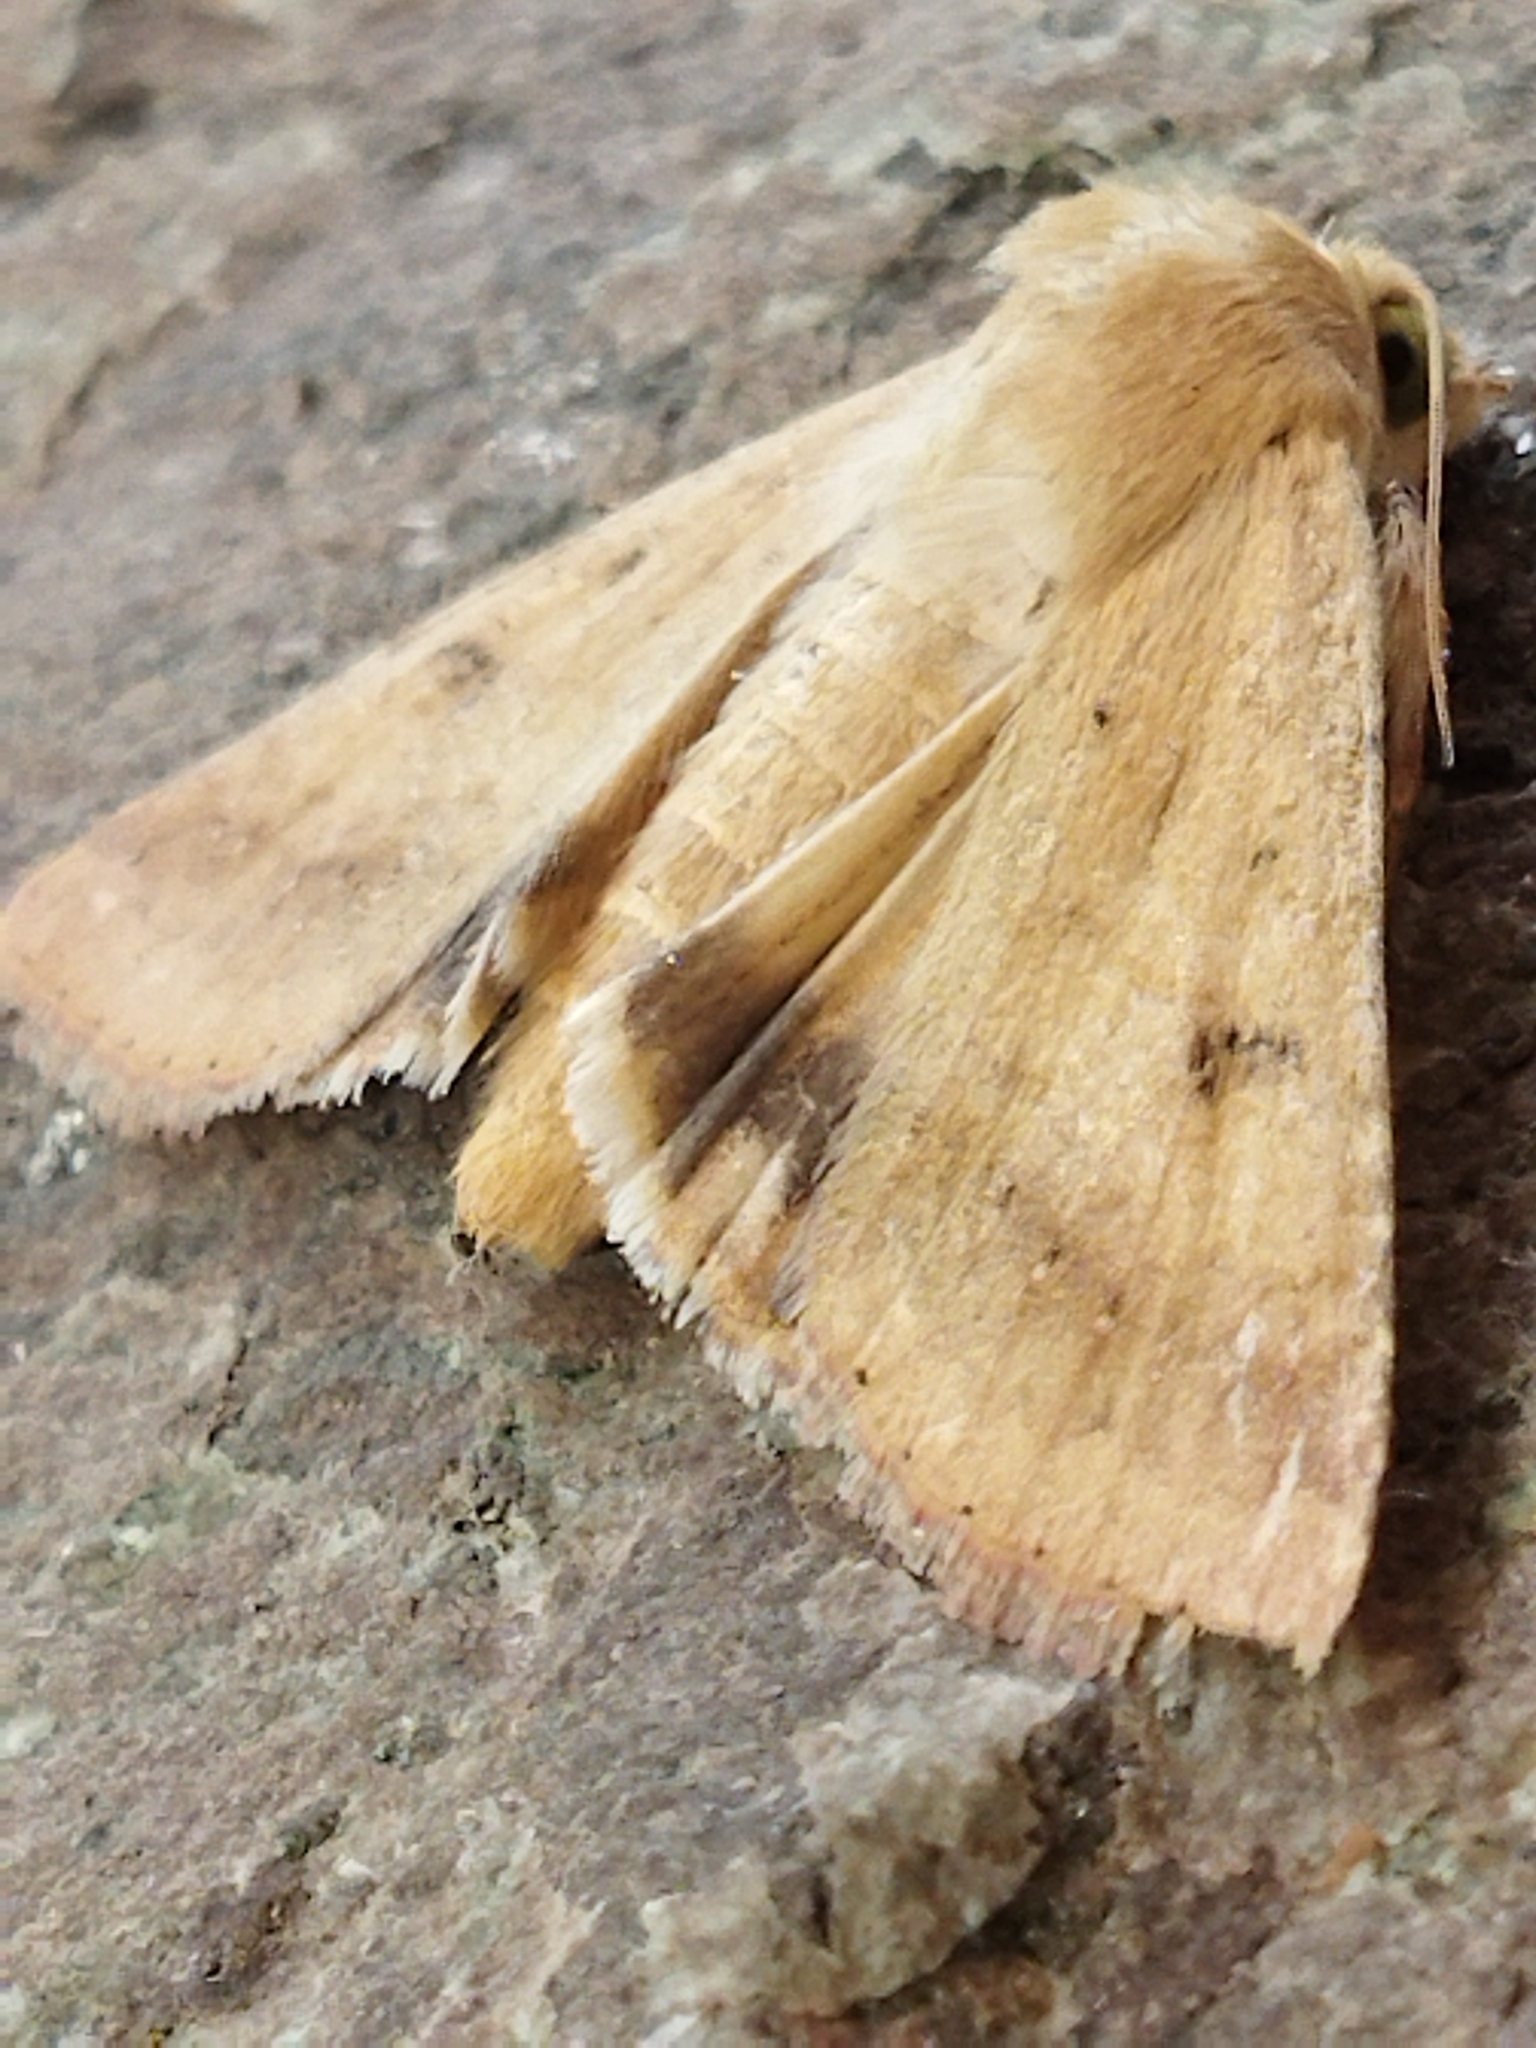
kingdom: Animalia
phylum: Arthropoda
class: Insecta
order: Lepidoptera
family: Noctuidae
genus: Helicoverpa
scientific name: Helicoverpa armigera
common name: Cotton bollworm
